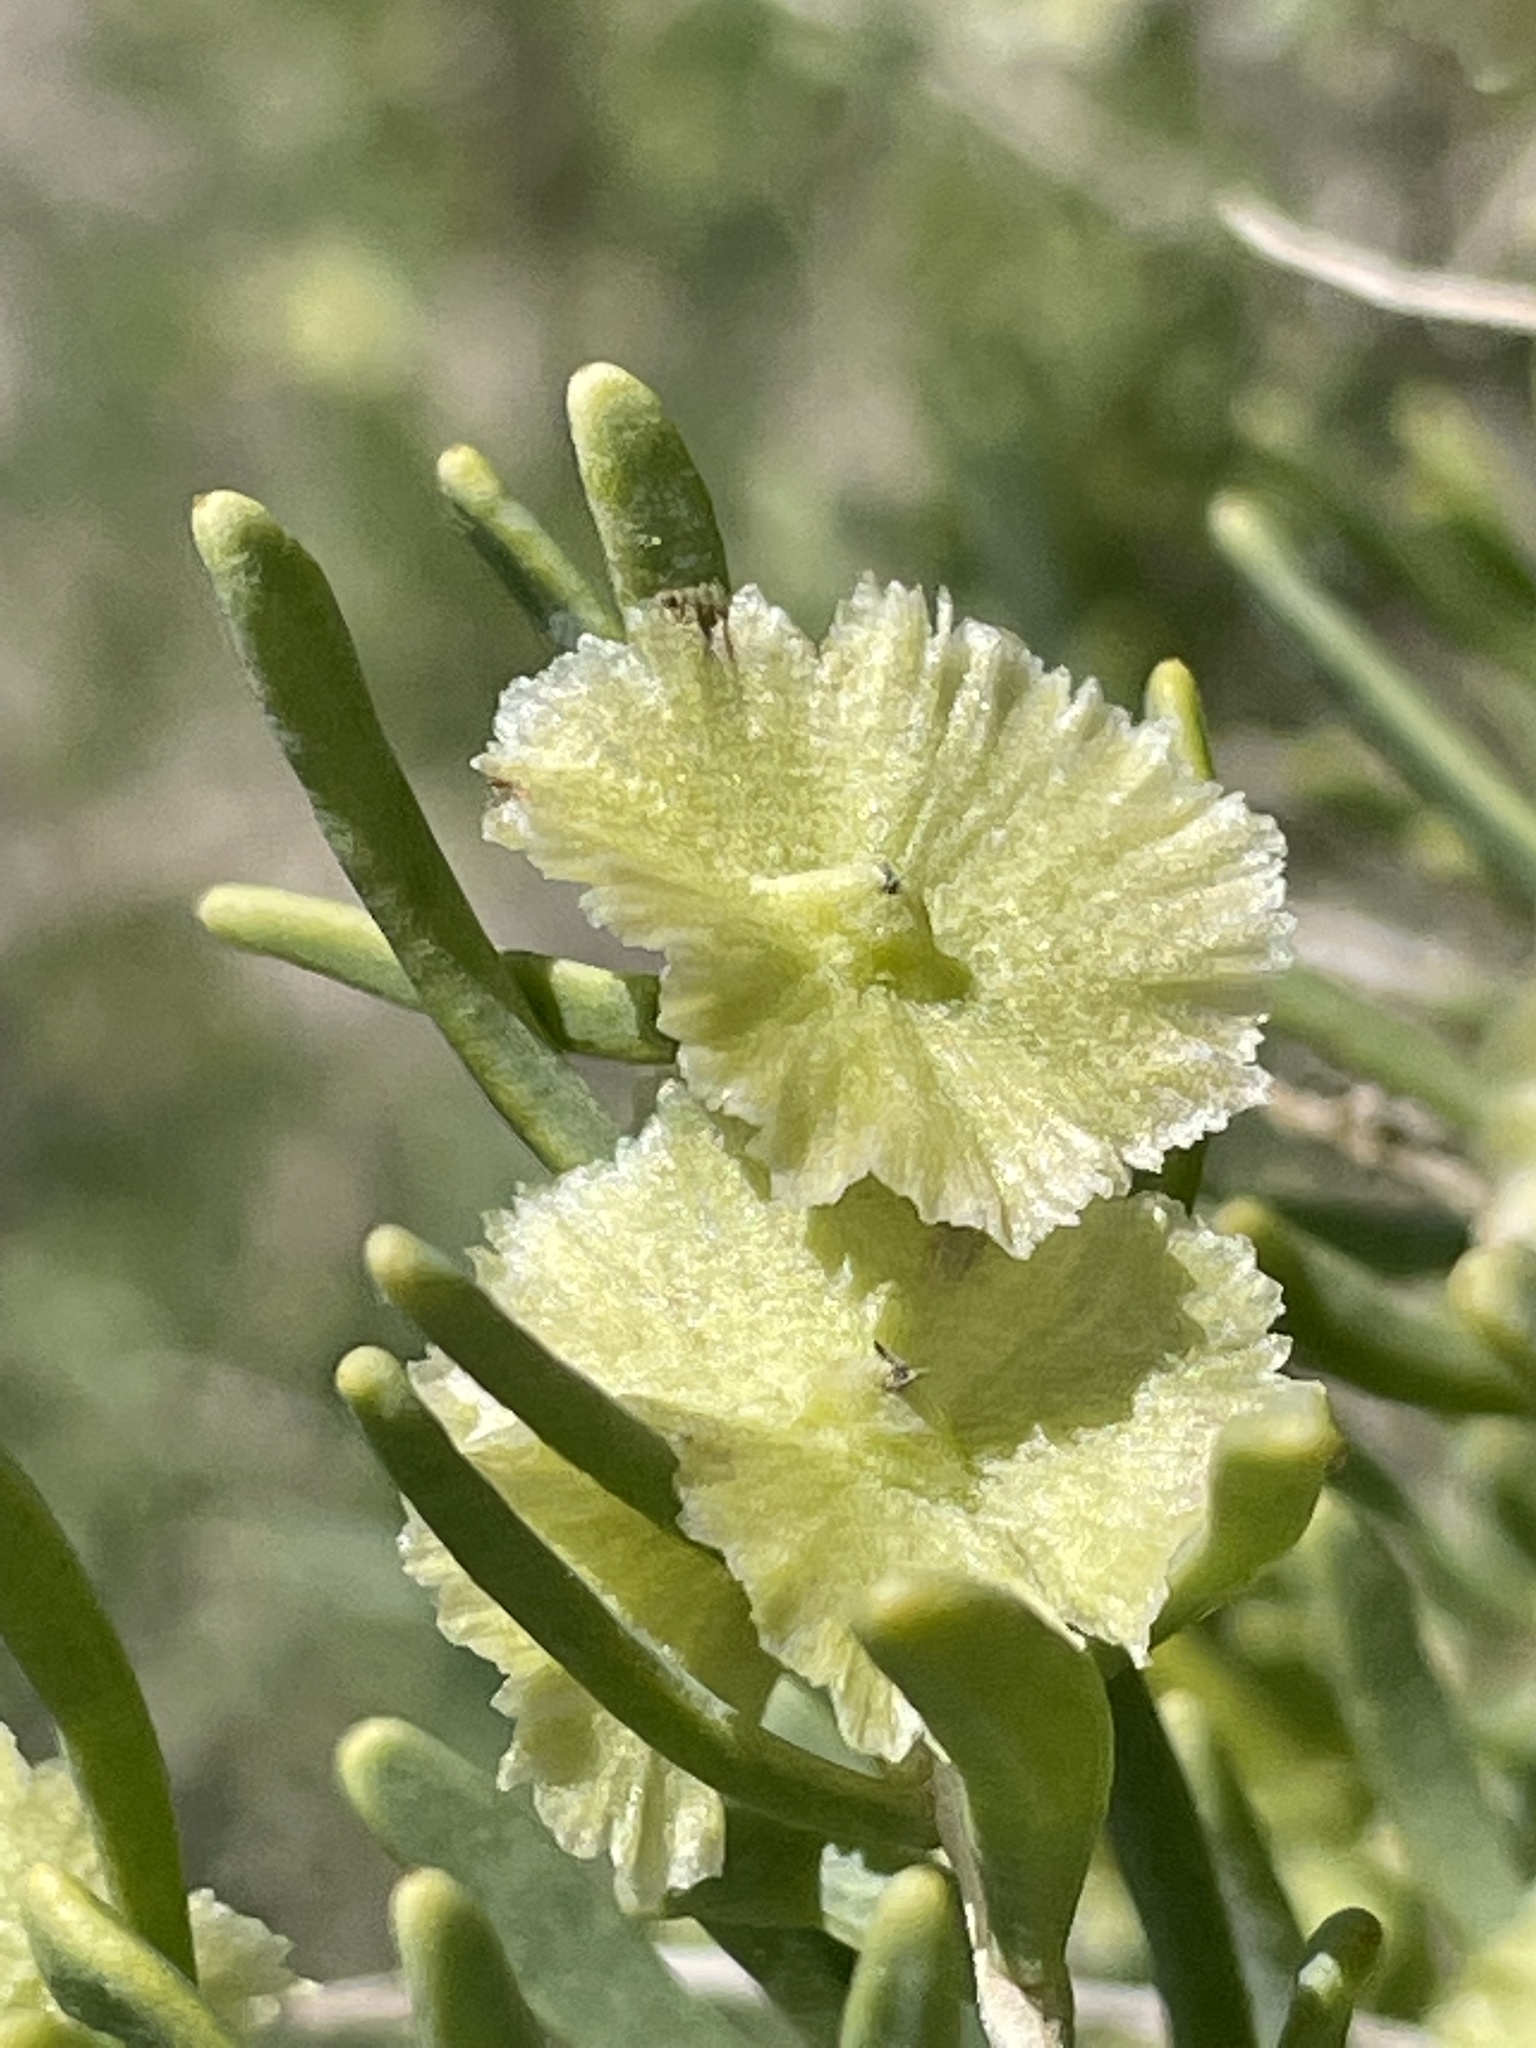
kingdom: Plantae
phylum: Tracheophyta
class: Magnoliopsida
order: Caryophyllales
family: Sarcobataceae
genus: Sarcobatus
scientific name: Sarcobatus vermiculatus
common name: Greasewood
